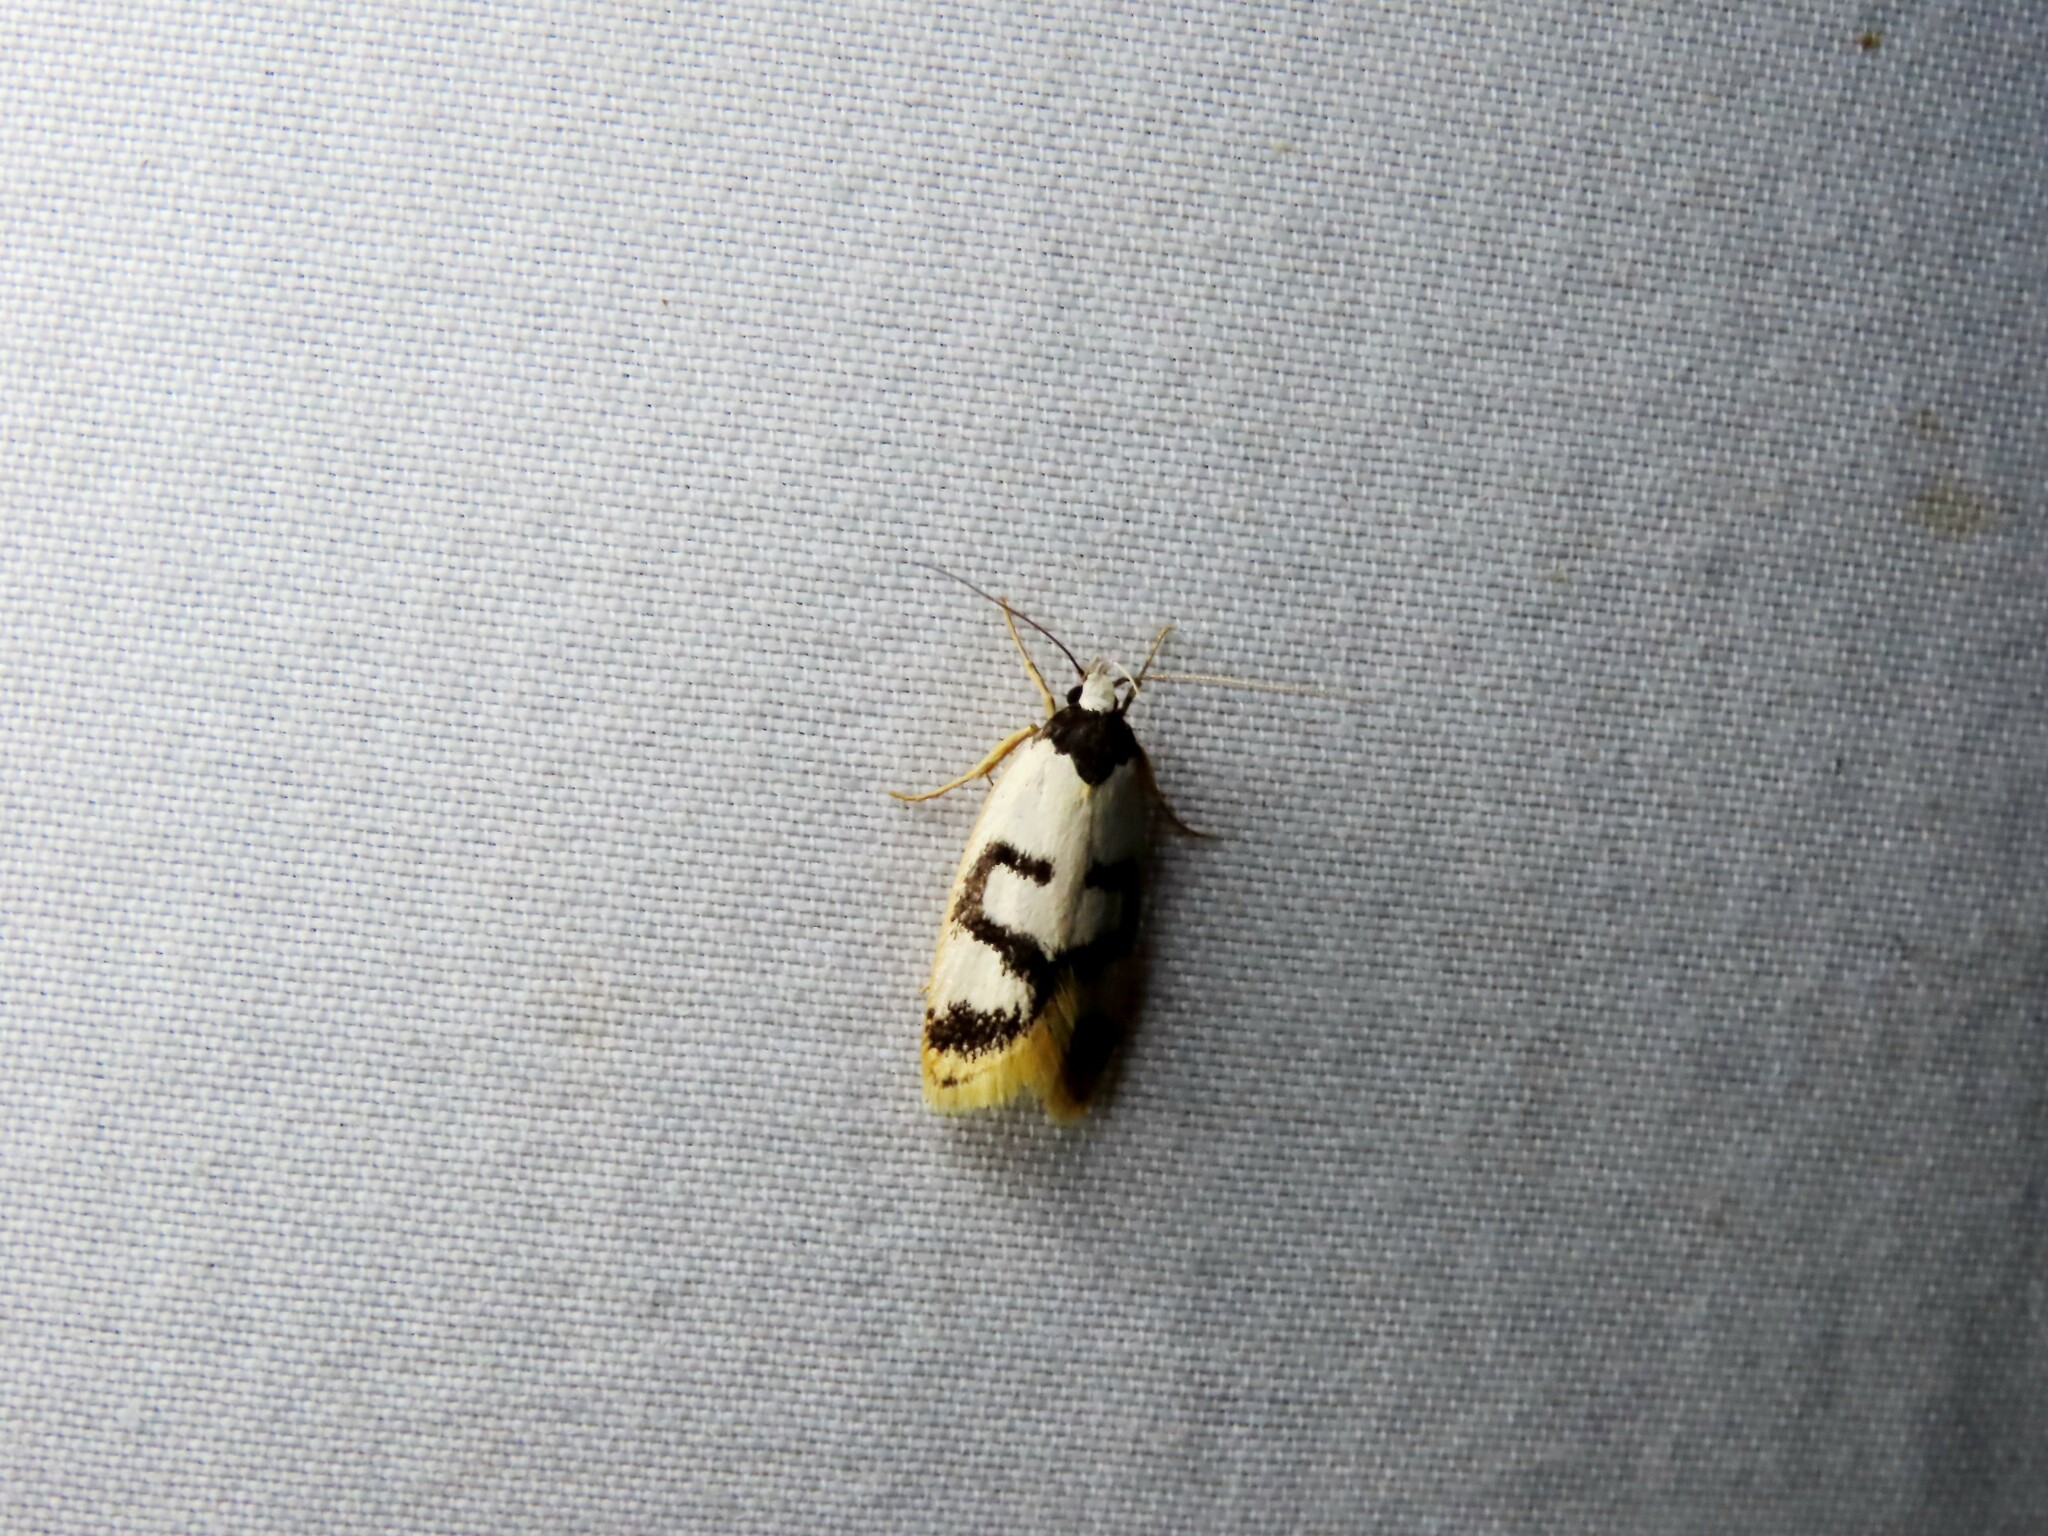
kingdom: Animalia
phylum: Arthropoda
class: Insecta
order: Lepidoptera
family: Oecophoridae
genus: Eulechria
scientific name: Eulechria sigmophora
